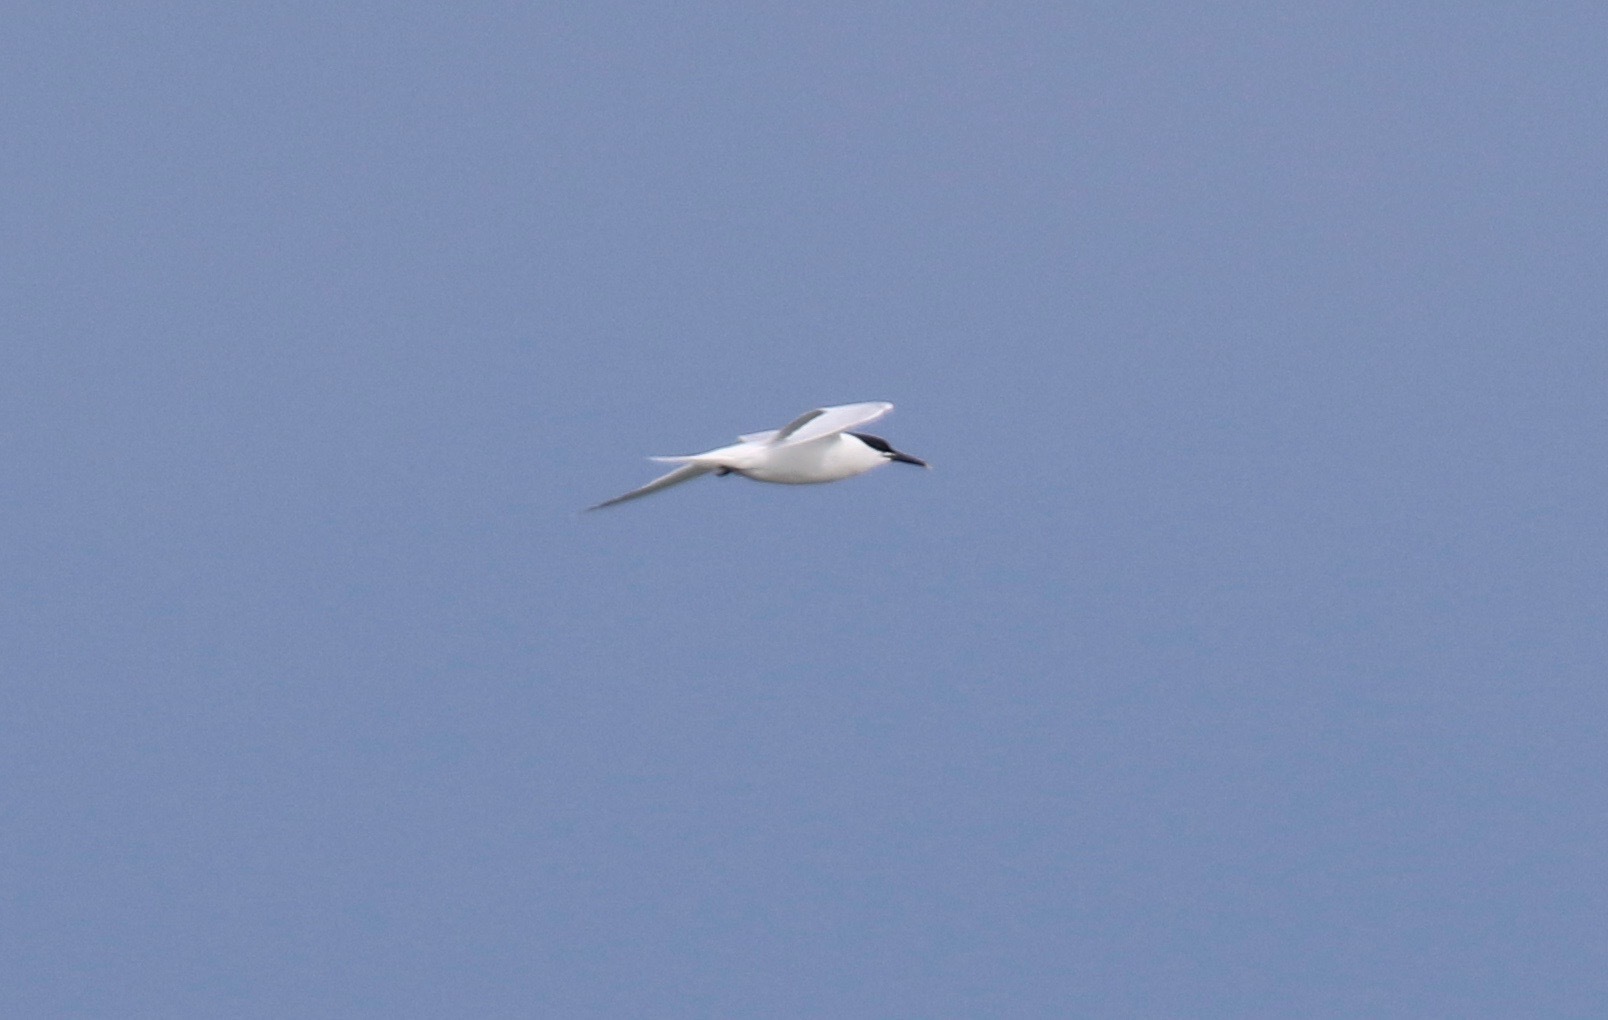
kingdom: Animalia
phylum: Chordata
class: Aves
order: Charadriiformes
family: Laridae
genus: Thalasseus
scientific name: Thalasseus sandvicensis
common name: Sandwich tern
